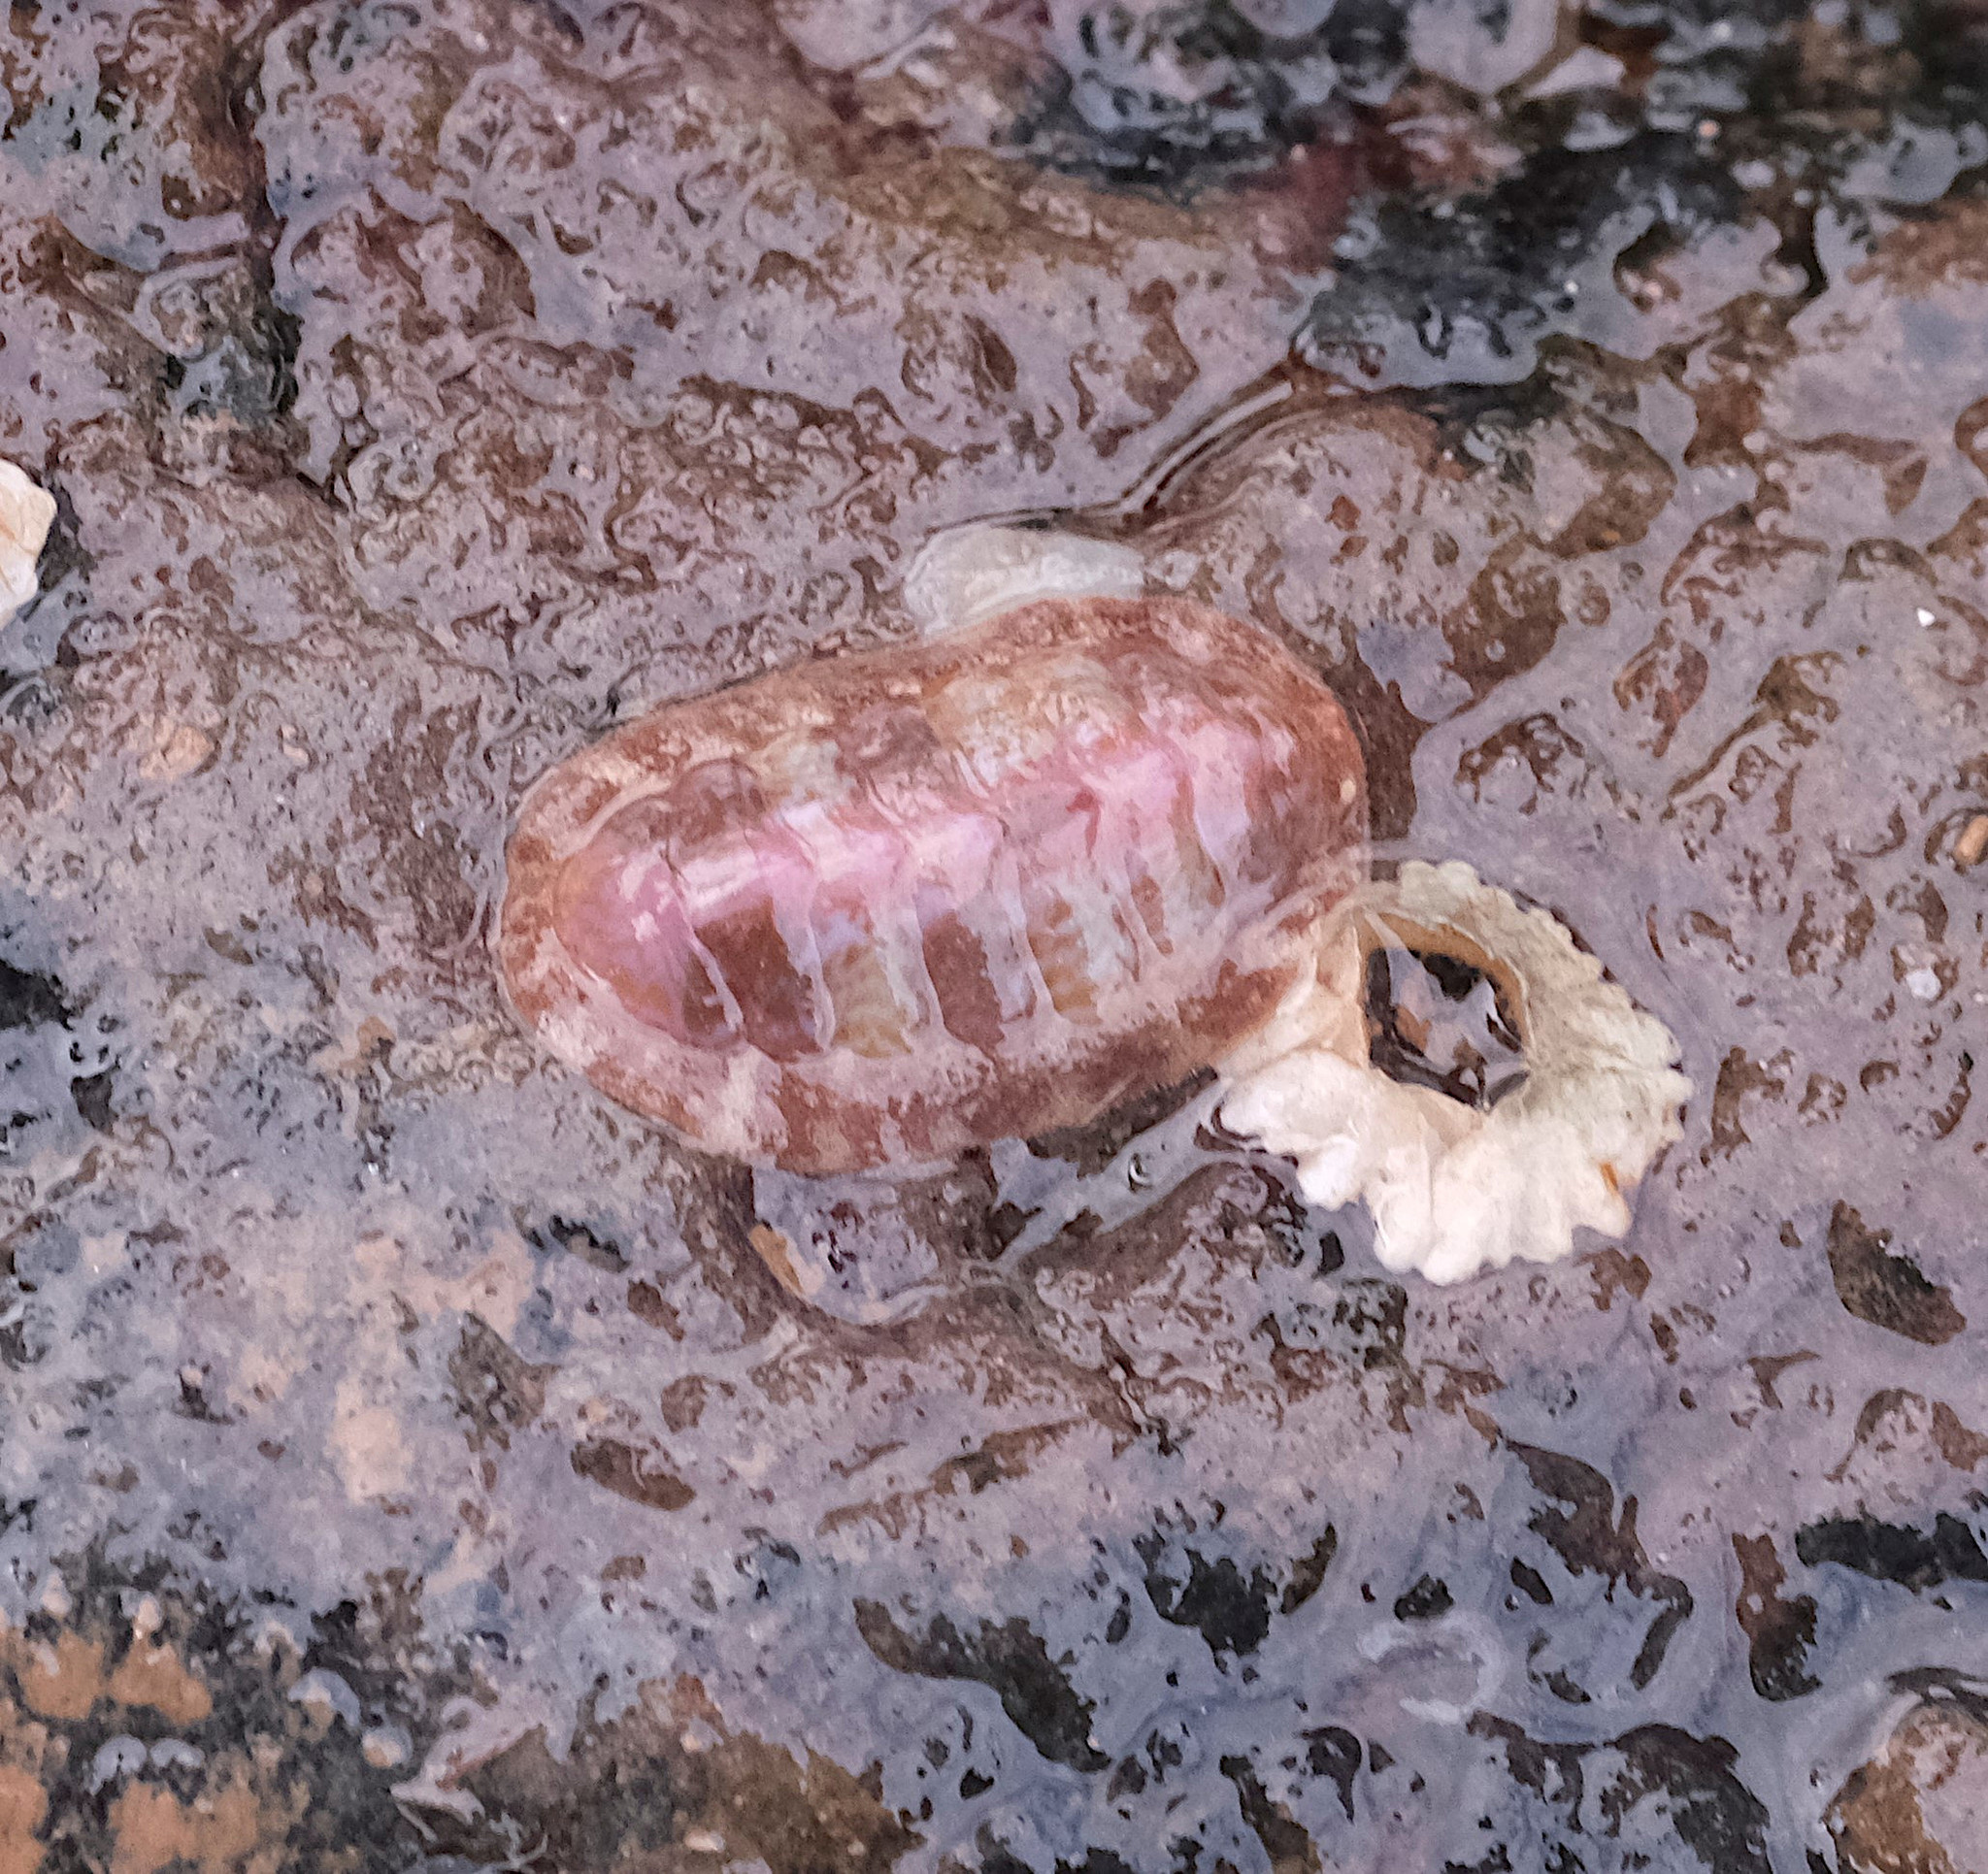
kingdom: Animalia
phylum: Mollusca
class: Polyplacophora
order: Chitonida
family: Tonicellidae
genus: Boreochiton
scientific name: Boreochiton ruber
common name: Northern red chiton
